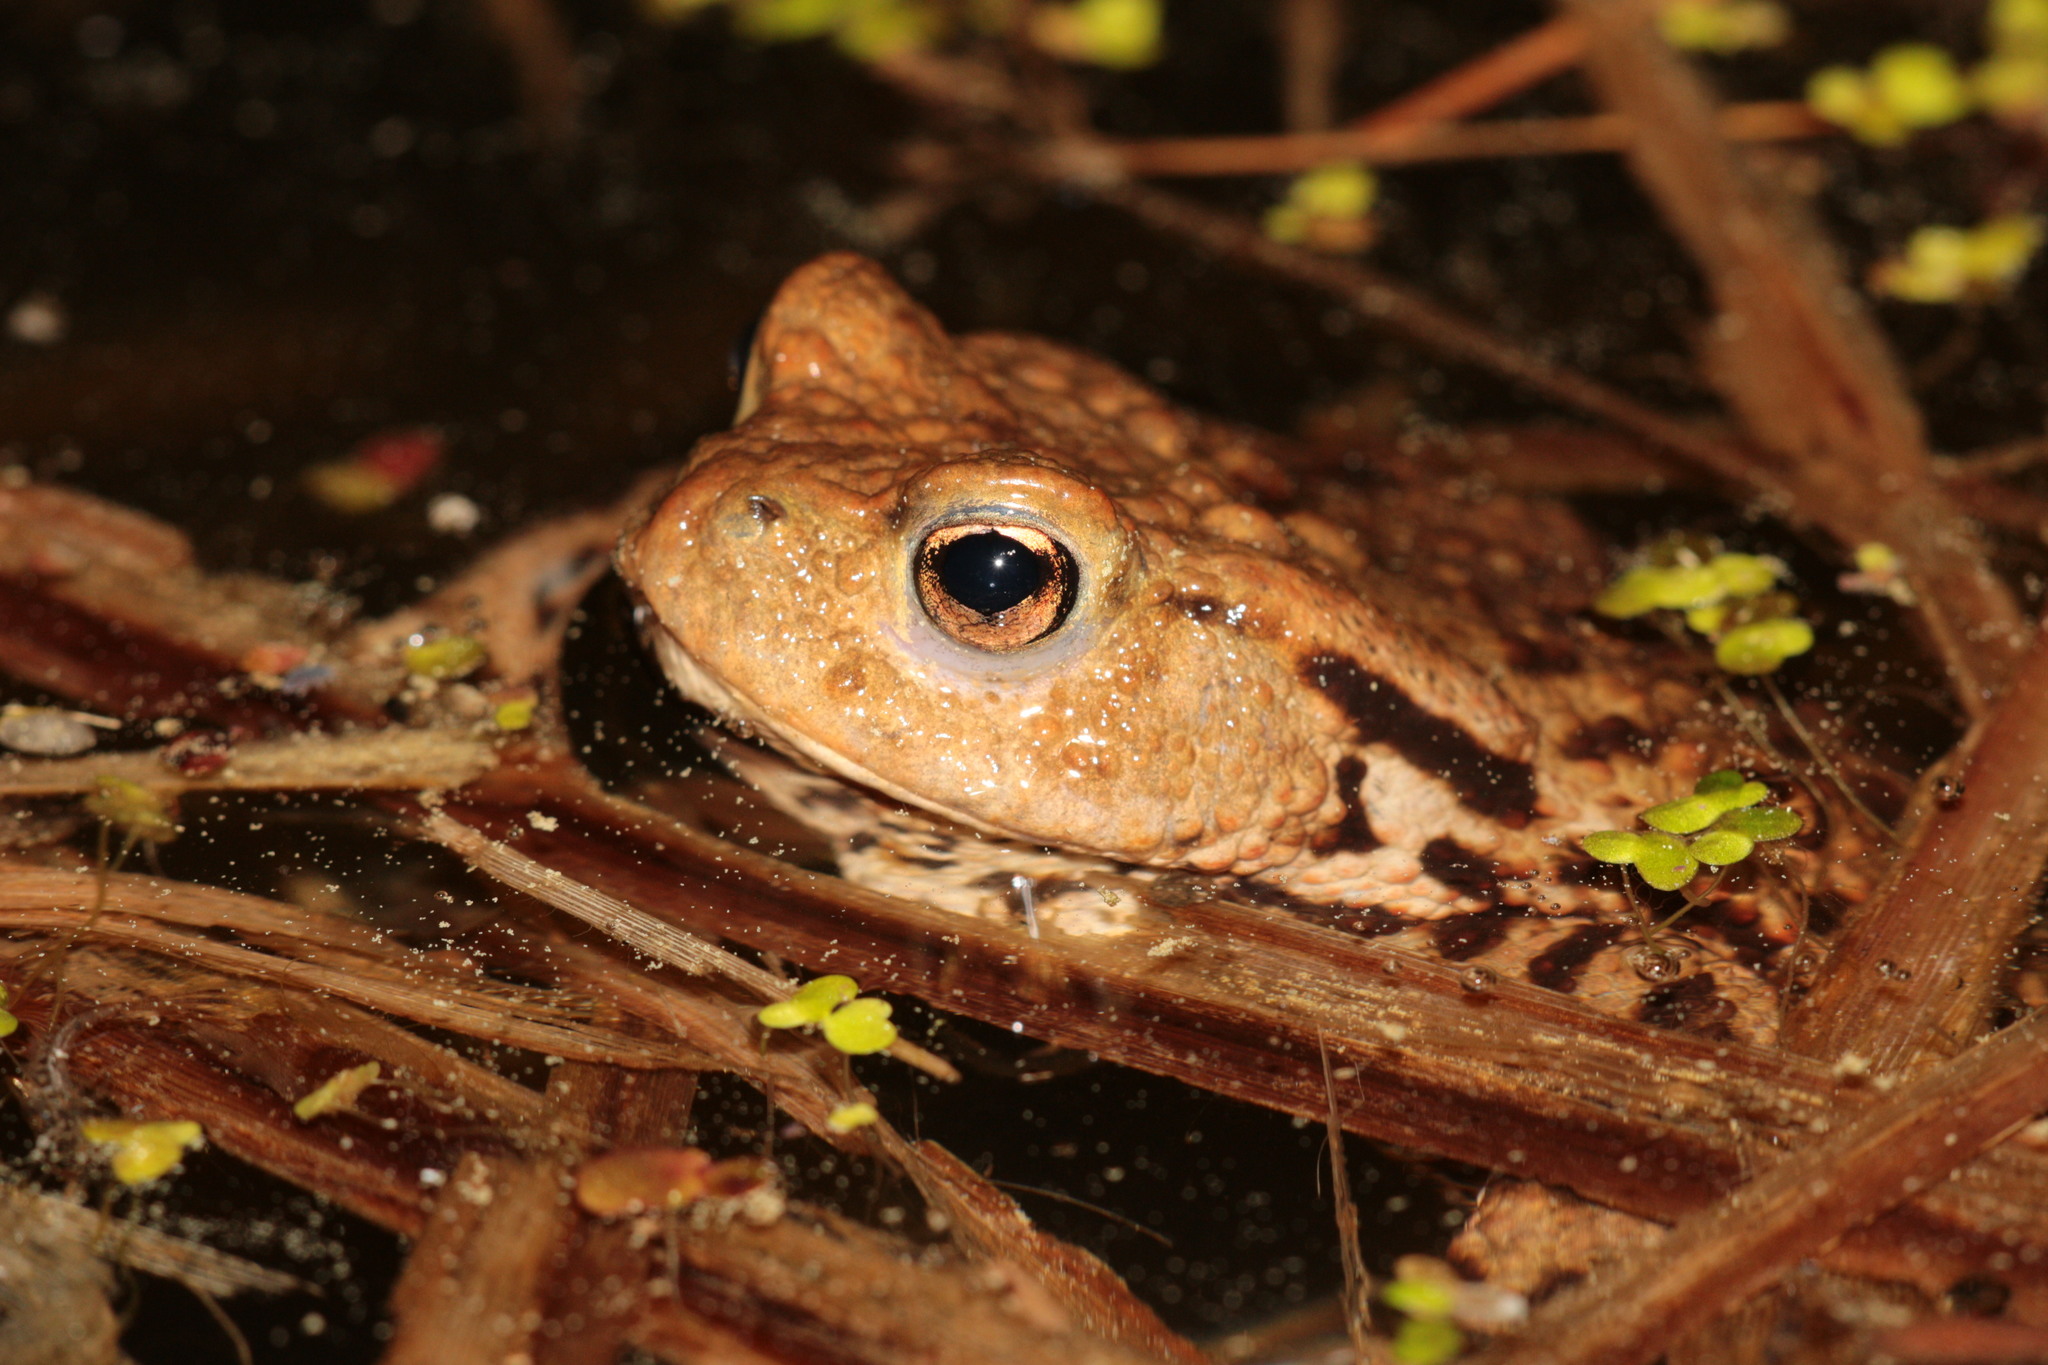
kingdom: Animalia
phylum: Chordata
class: Amphibia
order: Anura
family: Bufonidae
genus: Bufo
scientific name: Bufo bufo
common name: Common toad
